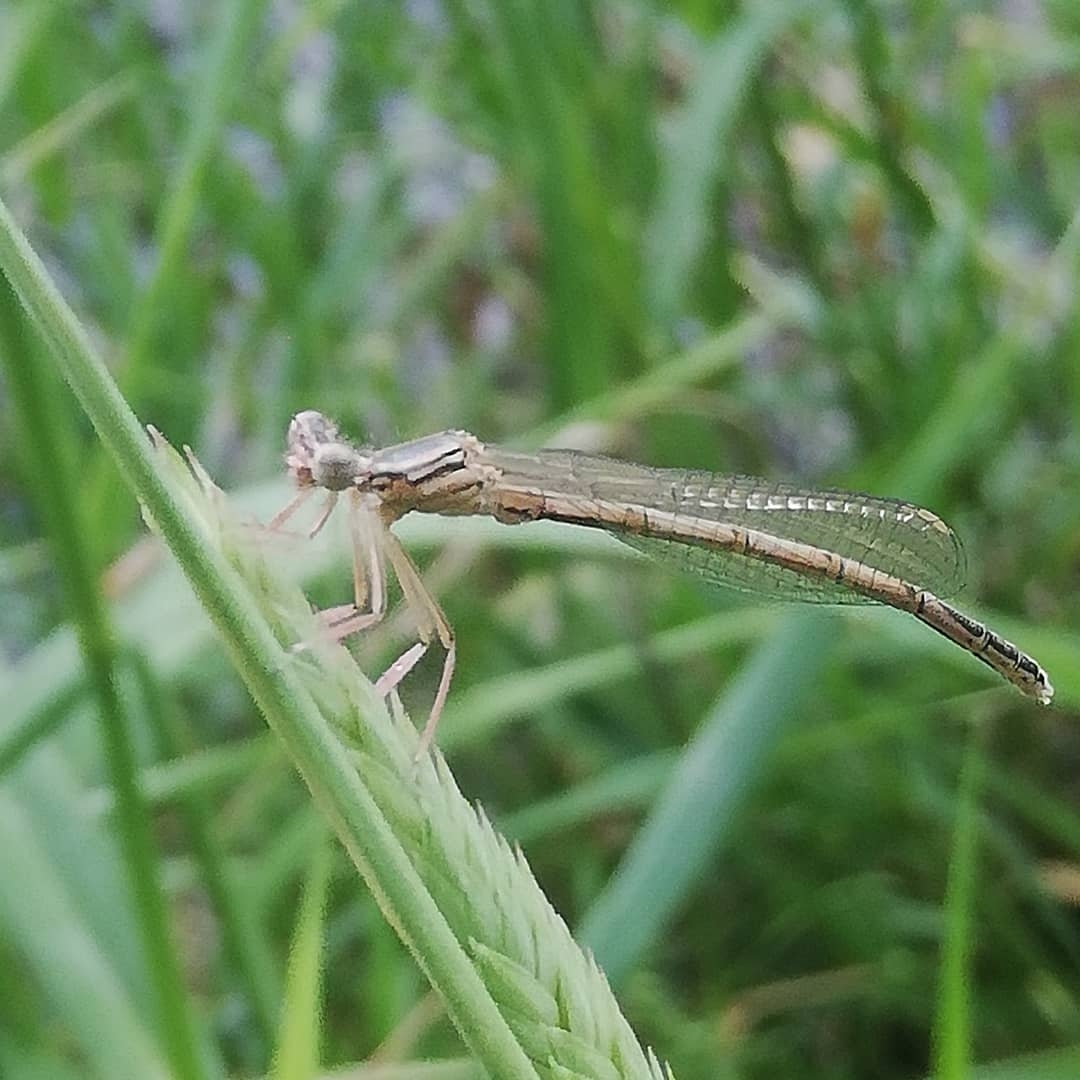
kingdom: Animalia
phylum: Arthropoda
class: Insecta
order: Odonata
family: Platycnemididae
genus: Platycnemis
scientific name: Platycnemis pennipes
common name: White-legged damselfly
